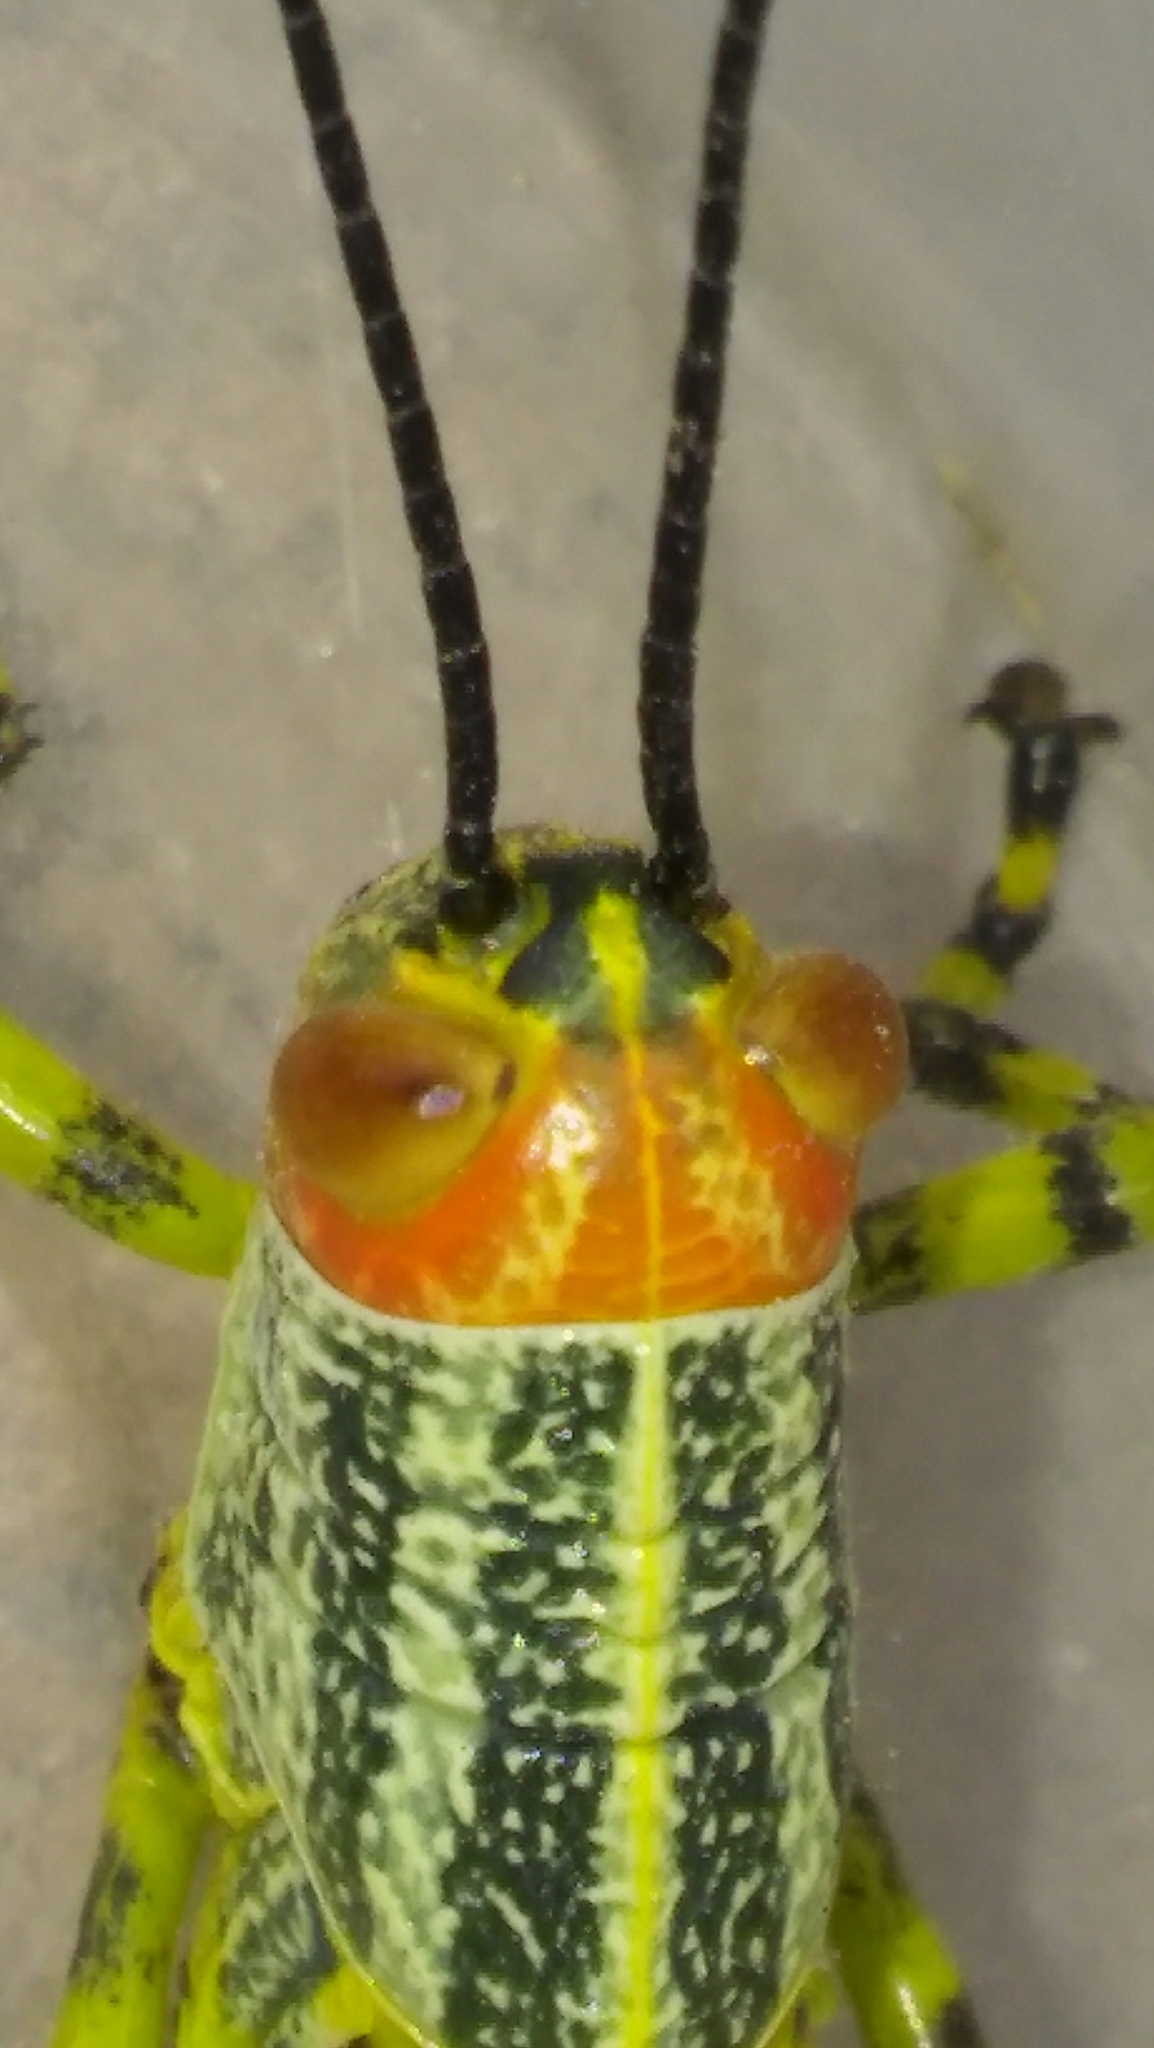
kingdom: Animalia
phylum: Arthropoda
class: Insecta
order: Orthoptera
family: Romaleidae
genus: Zoniopoda
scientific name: Zoniopoda tarsata
